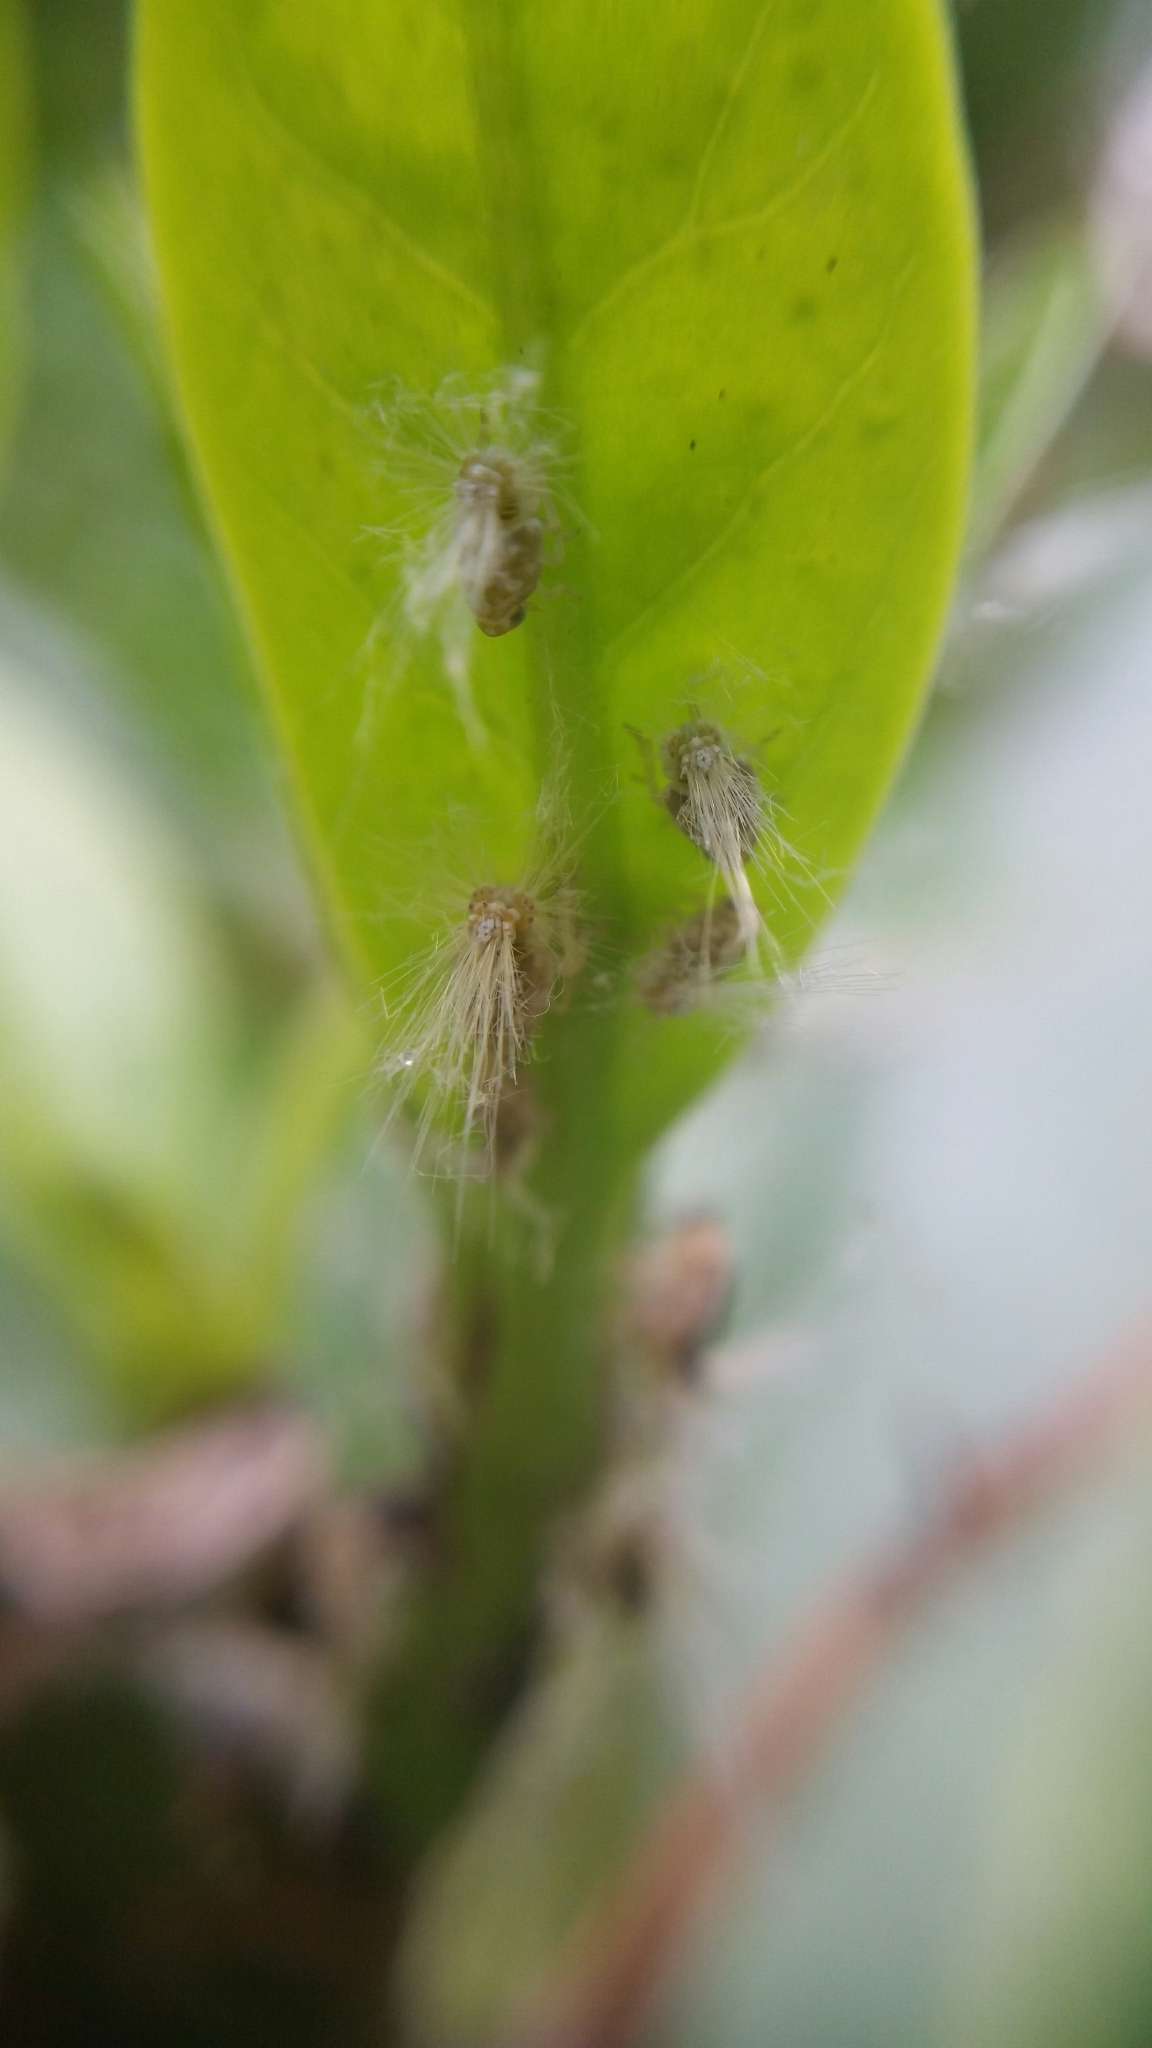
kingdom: Animalia
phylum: Arthropoda
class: Insecta
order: Hemiptera
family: Ricaniidae
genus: Scolypopa
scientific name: Scolypopa australis
